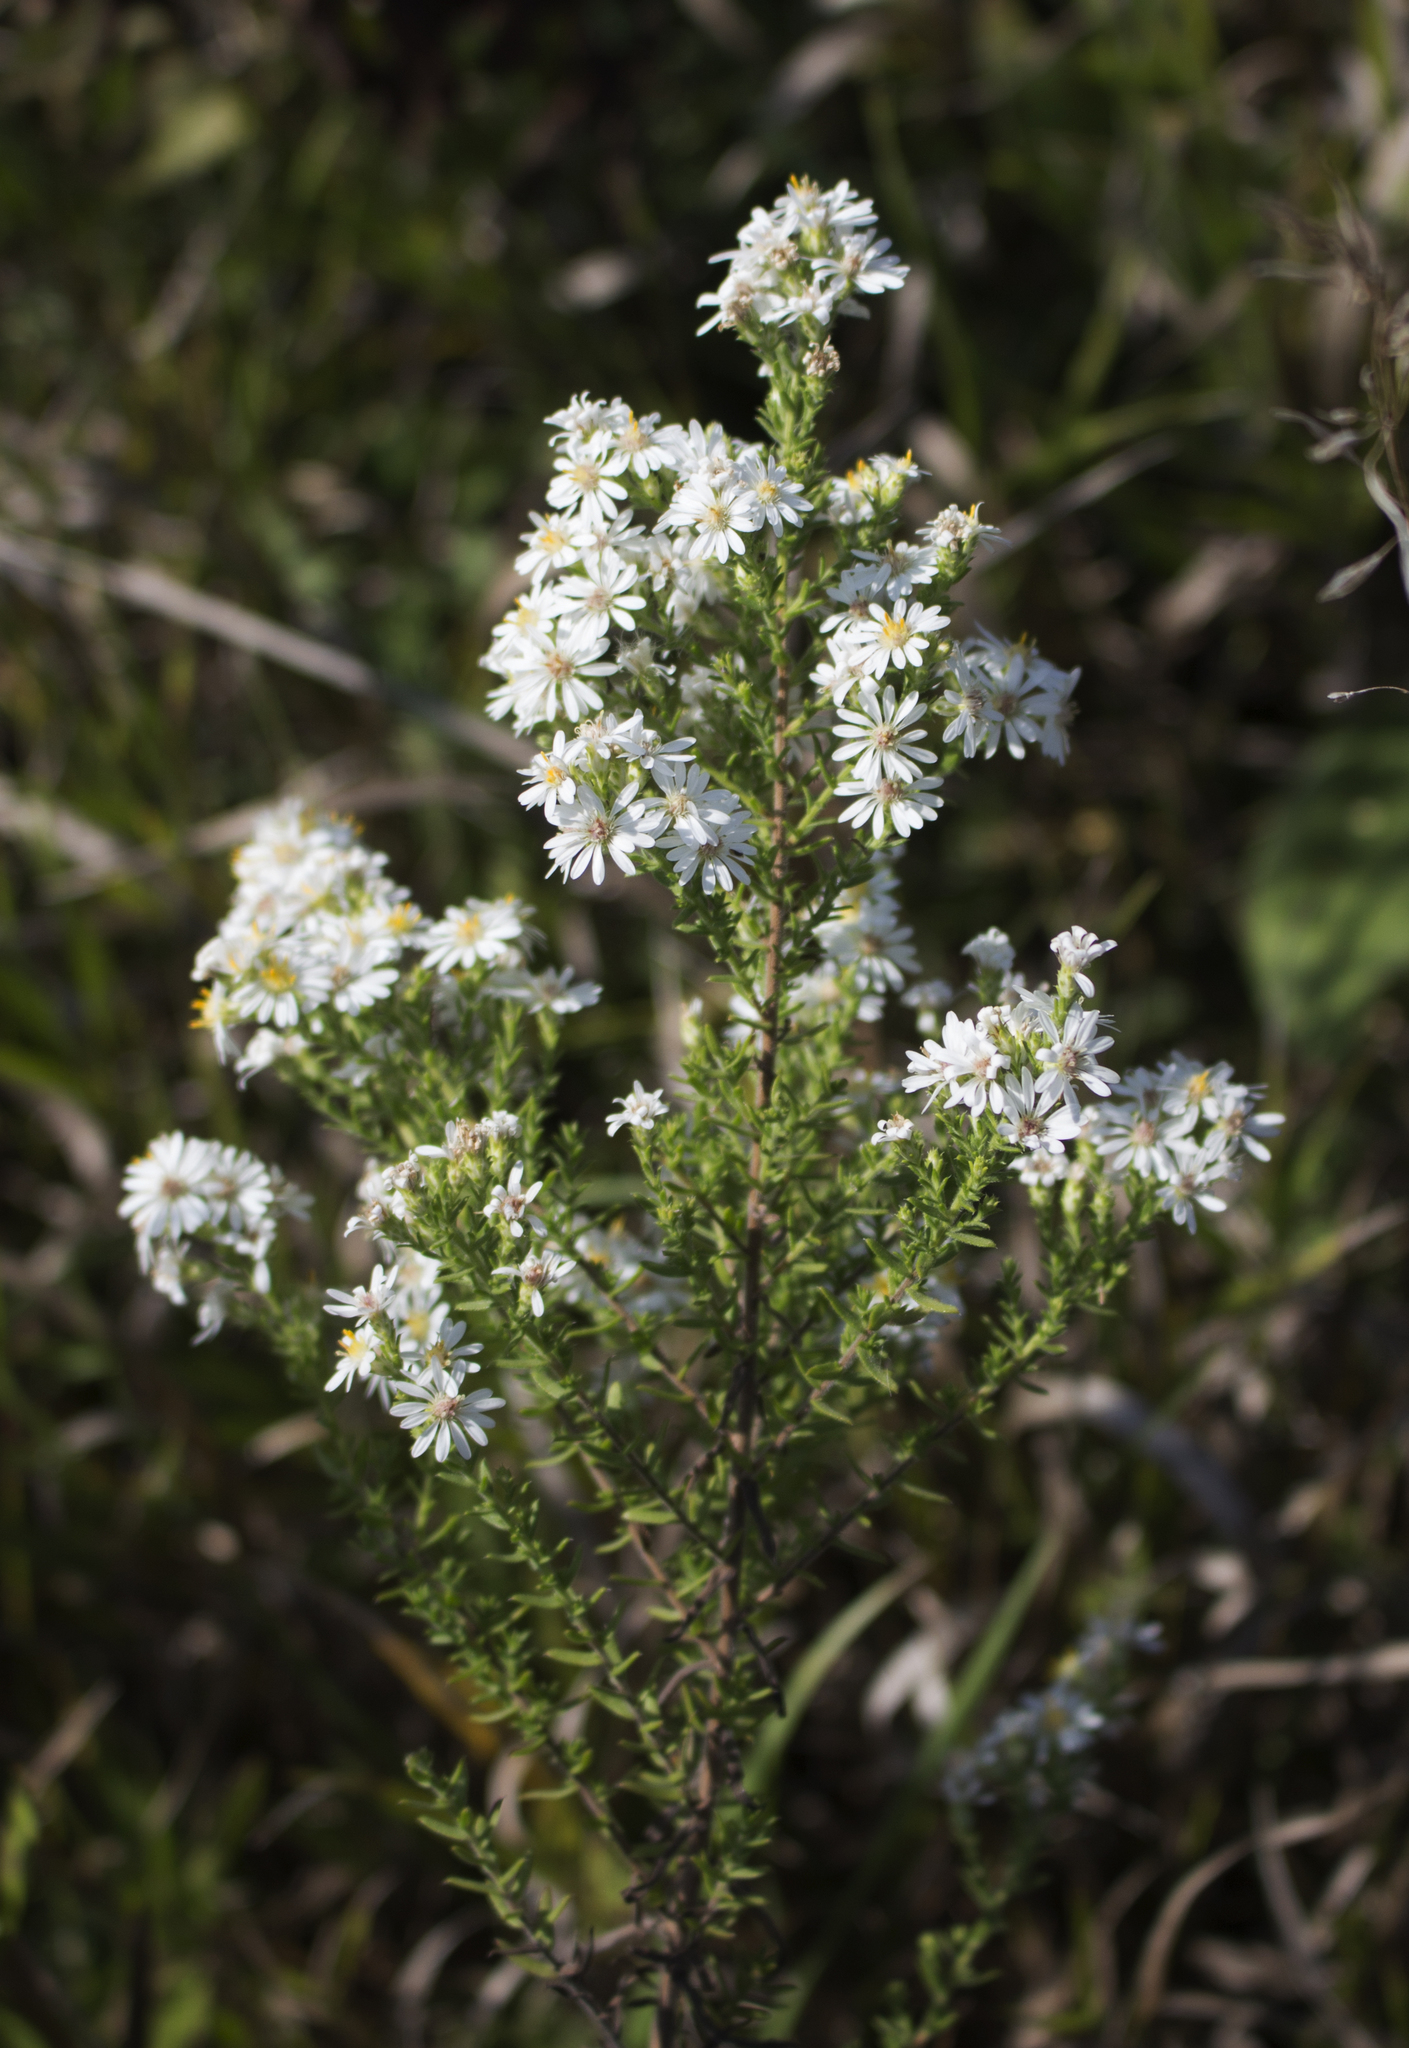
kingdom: Plantae
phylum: Tracheophyta
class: Magnoliopsida
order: Asterales
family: Asteraceae
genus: Symphyotrichum
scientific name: Symphyotrichum ericoides
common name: Heath aster
